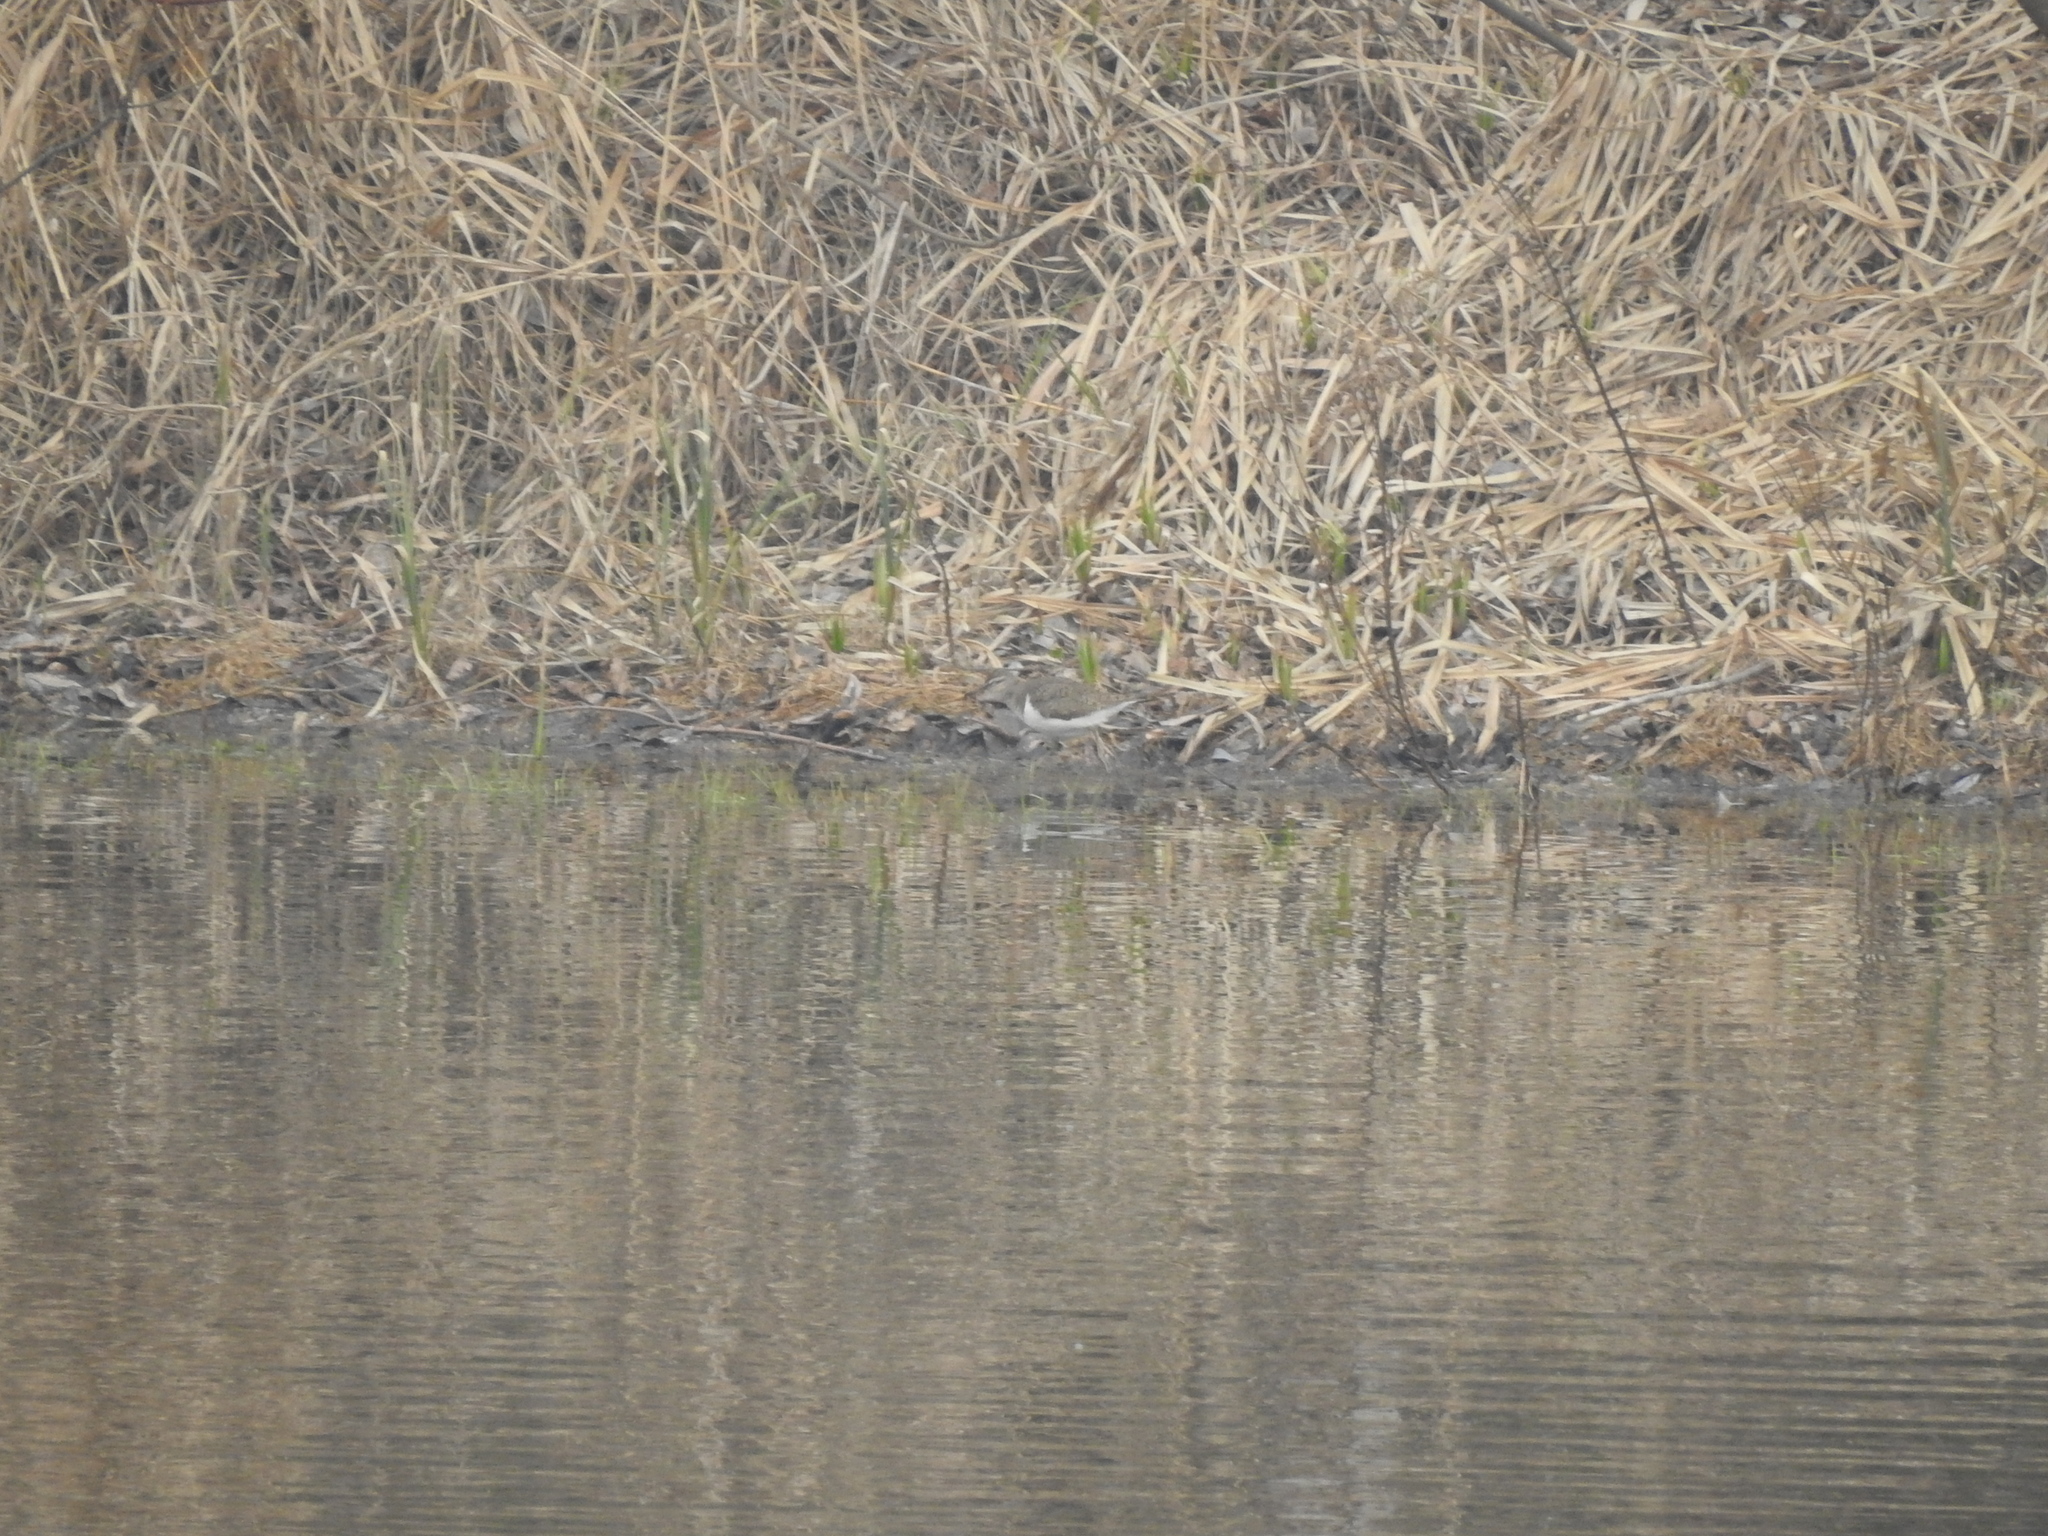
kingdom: Animalia
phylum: Chordata
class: Aves
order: Charadriiformes
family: Scolopacidae
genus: Actitis
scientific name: Actitis hypoleucos
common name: Common sandpiper
